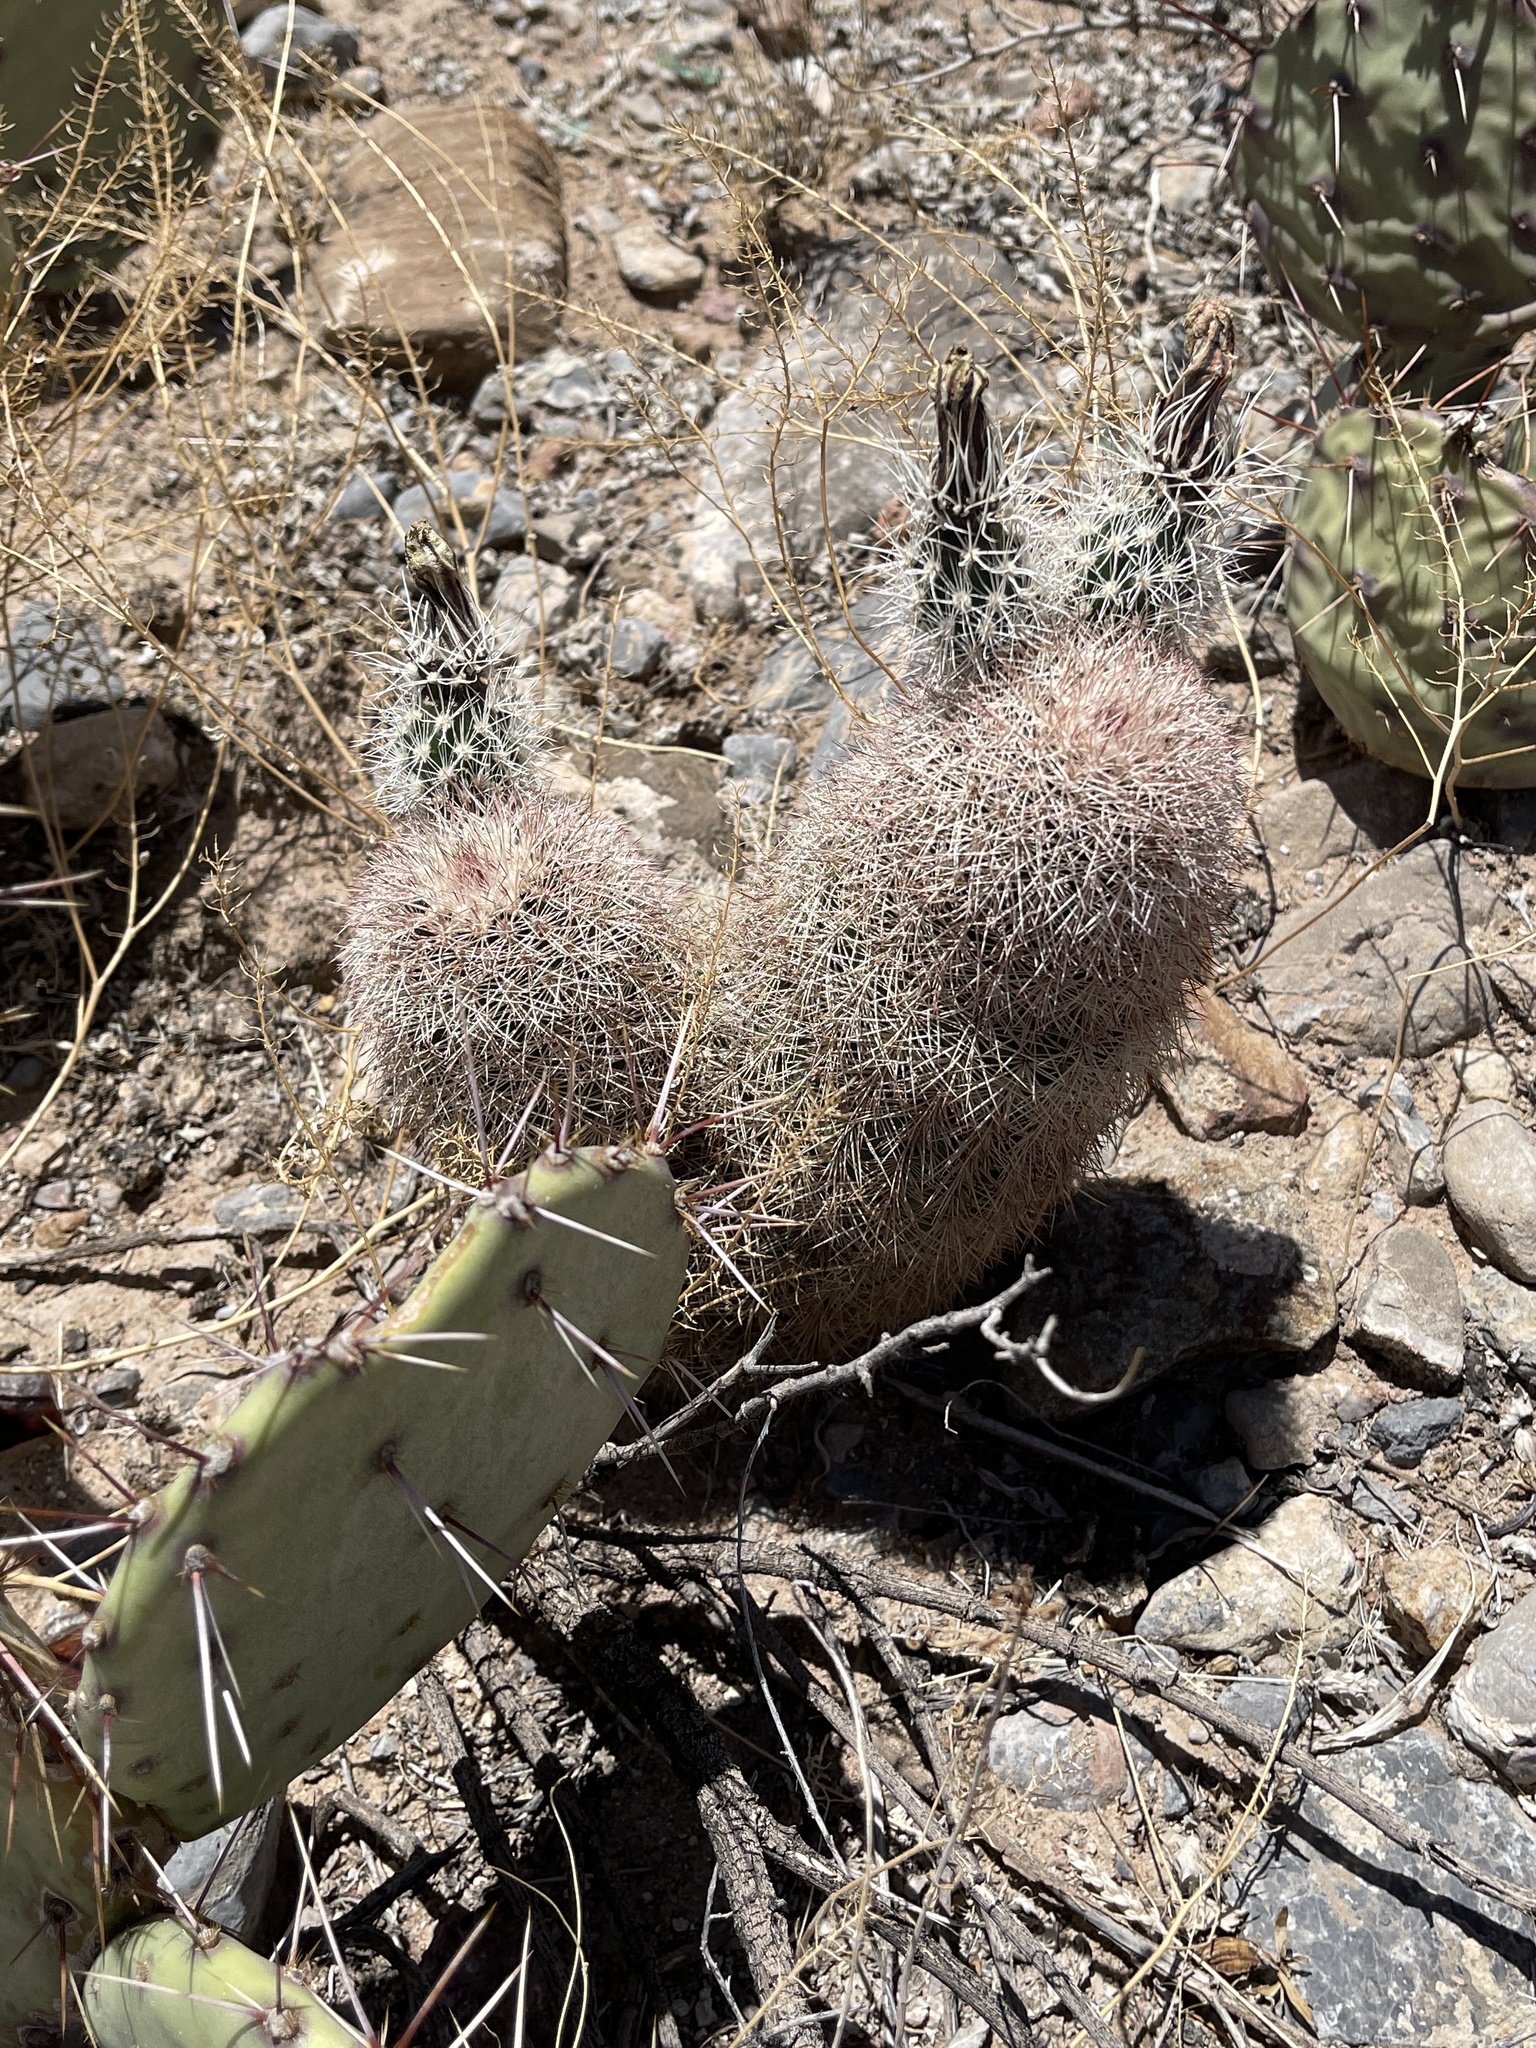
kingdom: Plantae
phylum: Tracheophyta
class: Magnoliopsida
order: Caryophyllales
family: Cactaceae
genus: Echinocereus
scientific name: Echinocereus dasyacanthus
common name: Spiny hedgehog cactus
